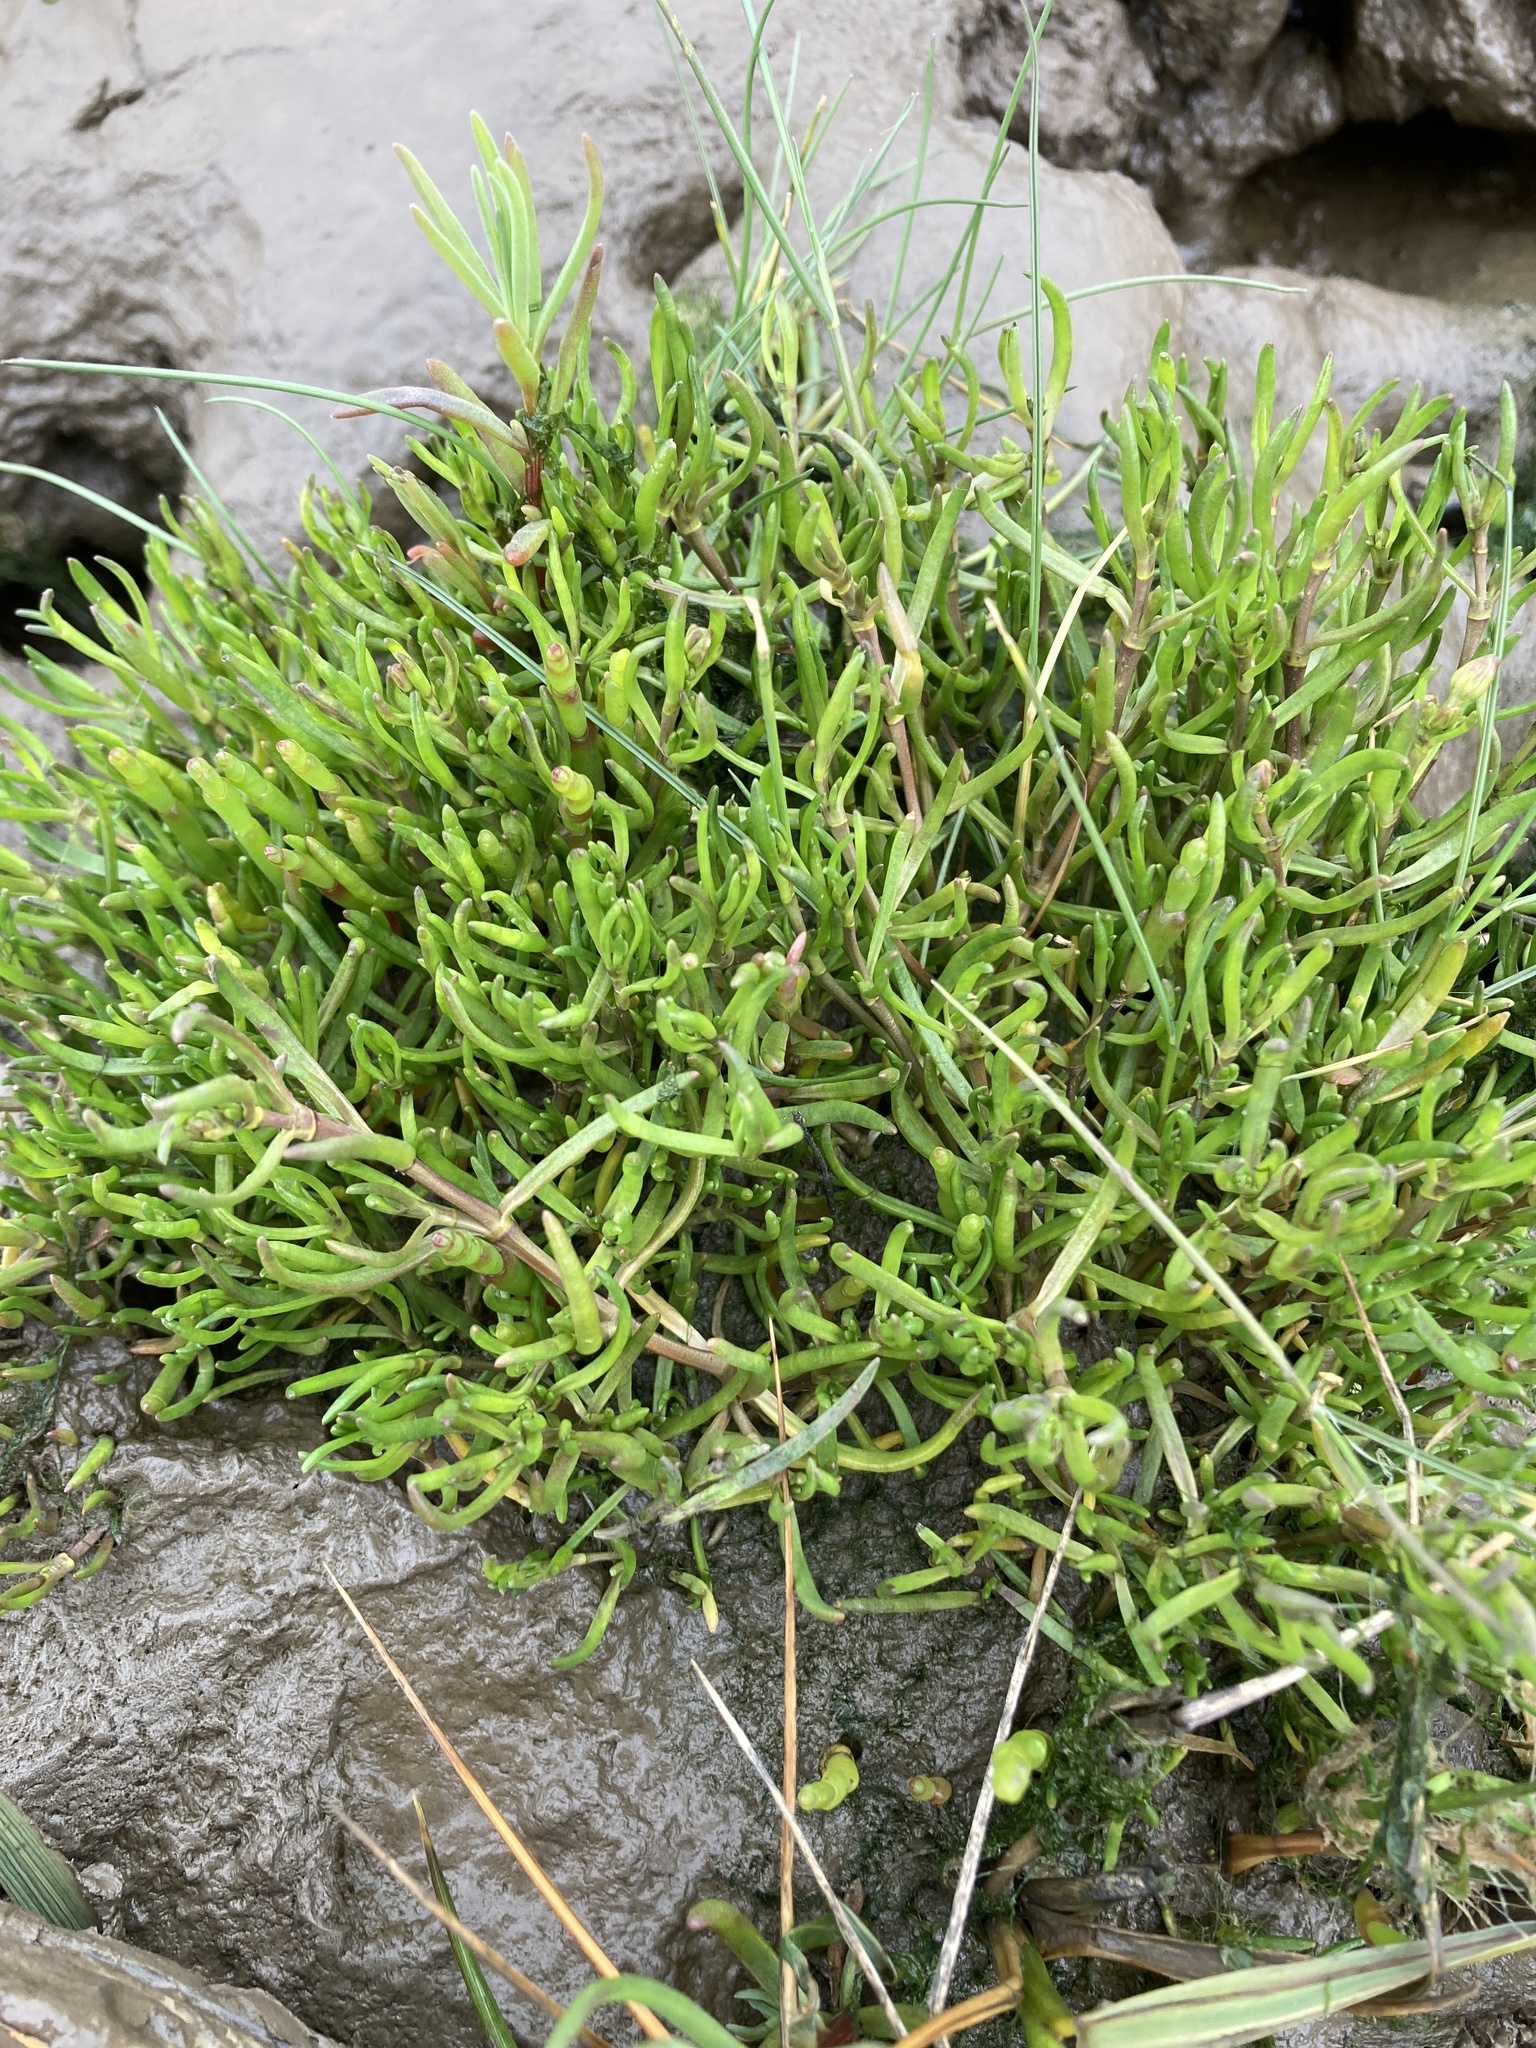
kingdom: Plantae
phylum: Tracheophyta
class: Magnoliopsida
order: Apiales
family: Apiaceae
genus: Crithmum
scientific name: Crithmum maritimum
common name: Rock samphire
